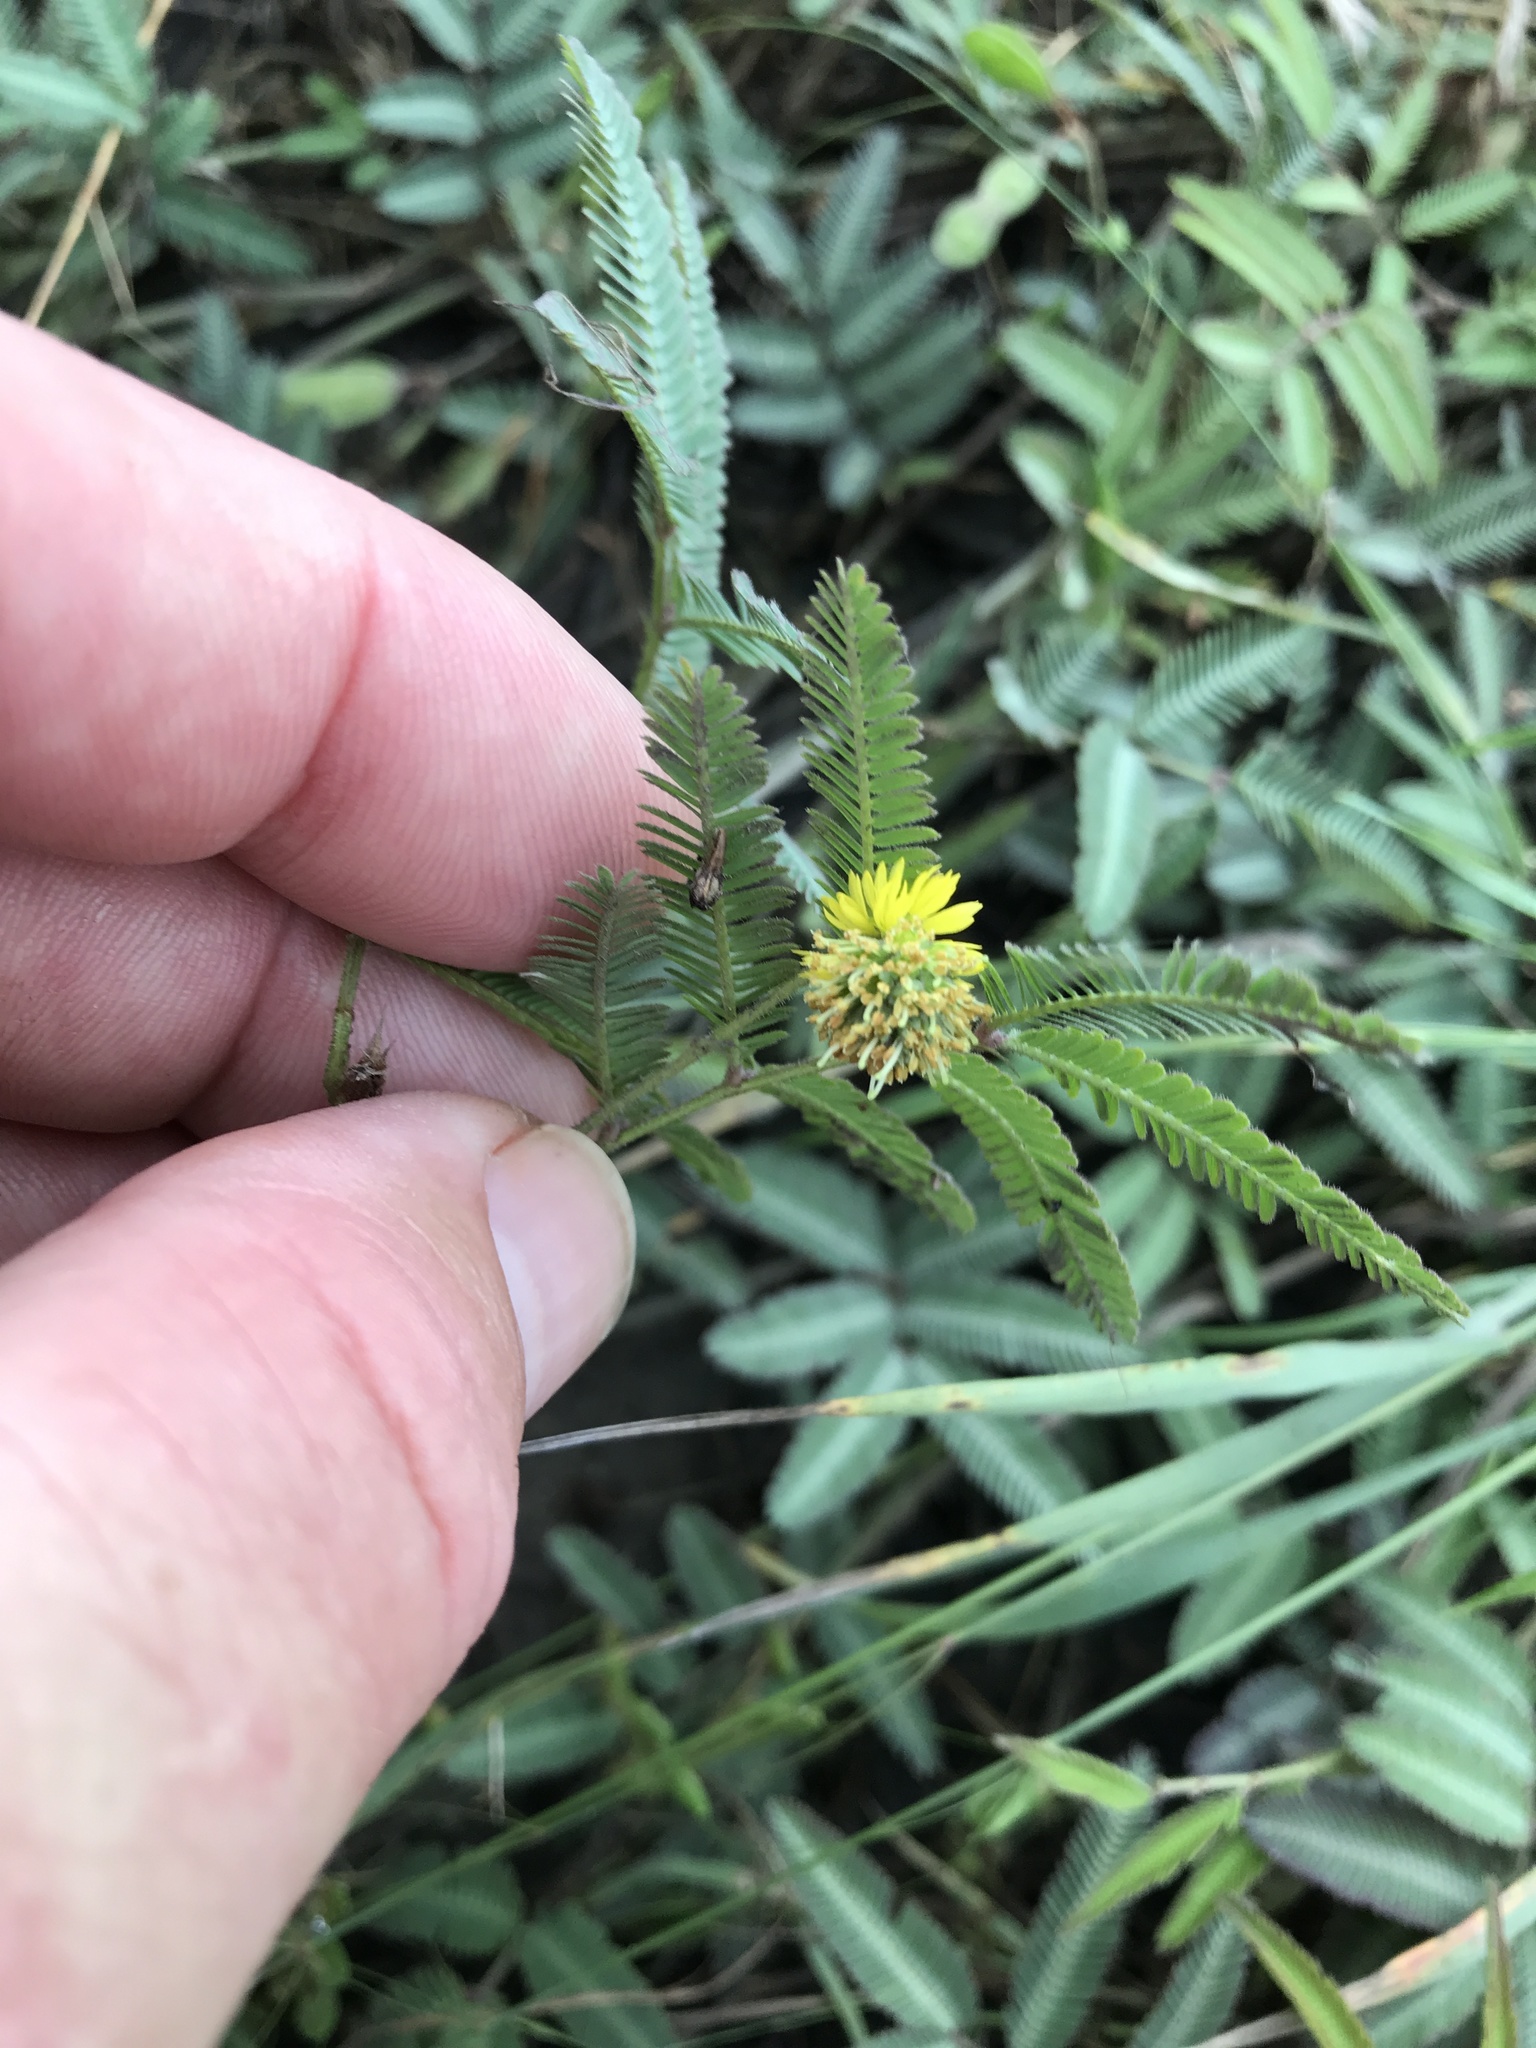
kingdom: Plantae
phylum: Tracheophyta
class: Magnoliopsida
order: Fabales
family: Fabaceae
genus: Neptunia
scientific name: Neptunia pubescens
